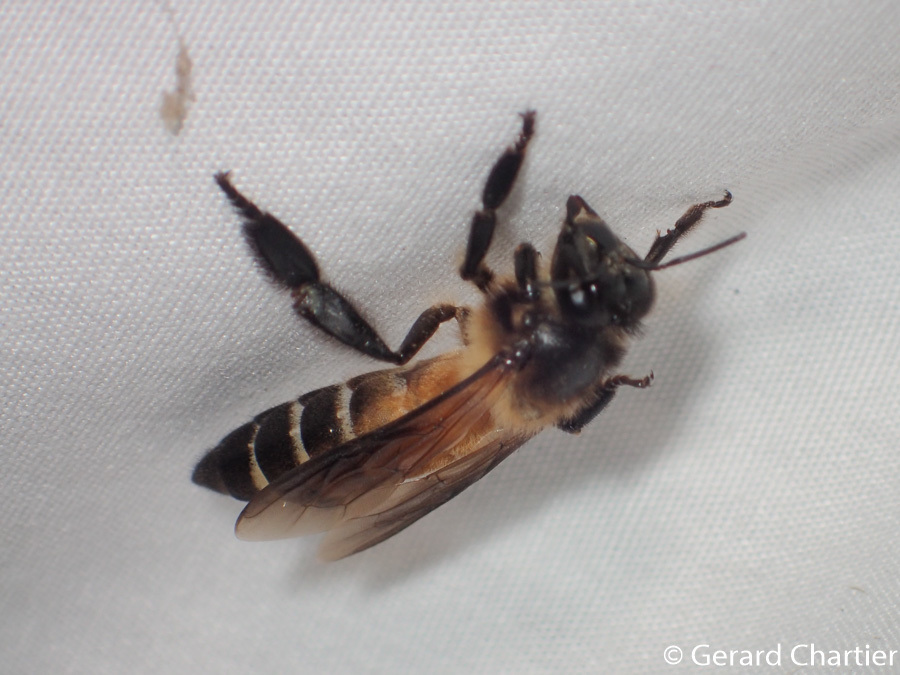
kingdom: Animalia
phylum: Arthropoda
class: Insecta
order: Hymenoptera
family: Apidae
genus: Apis
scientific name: Apis dorsata
